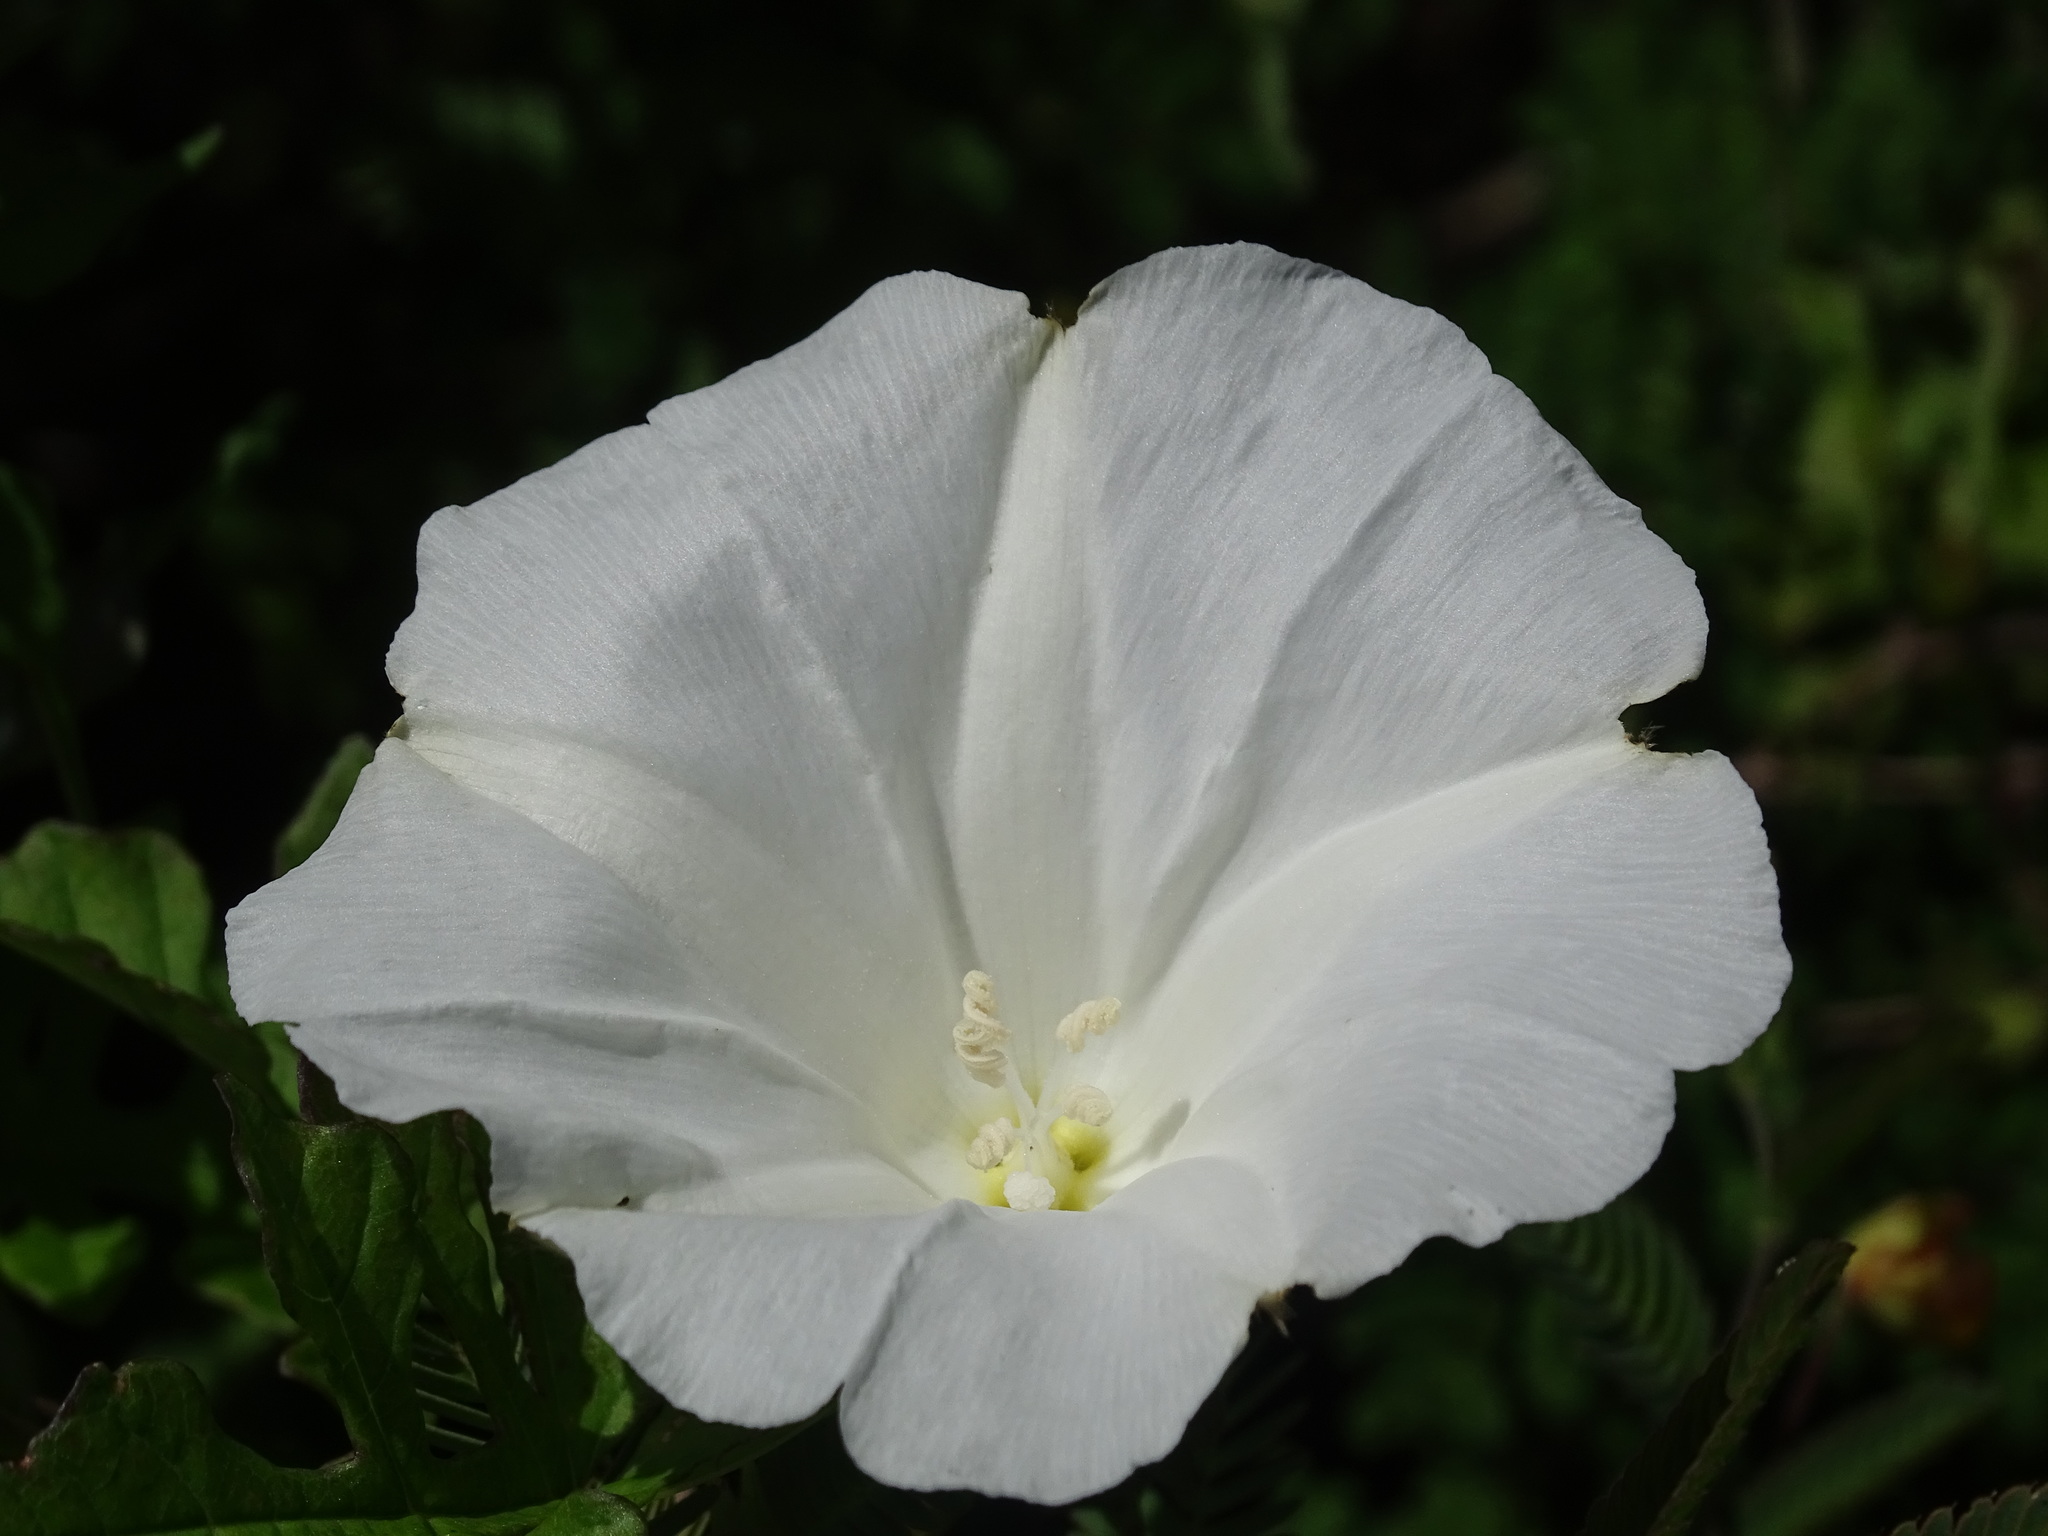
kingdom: Plantae
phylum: Tracheophyta
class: Magnoliopsida
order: Solanales
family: Convolvulaceae
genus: Operculina
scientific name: Operculina pinnatifida
